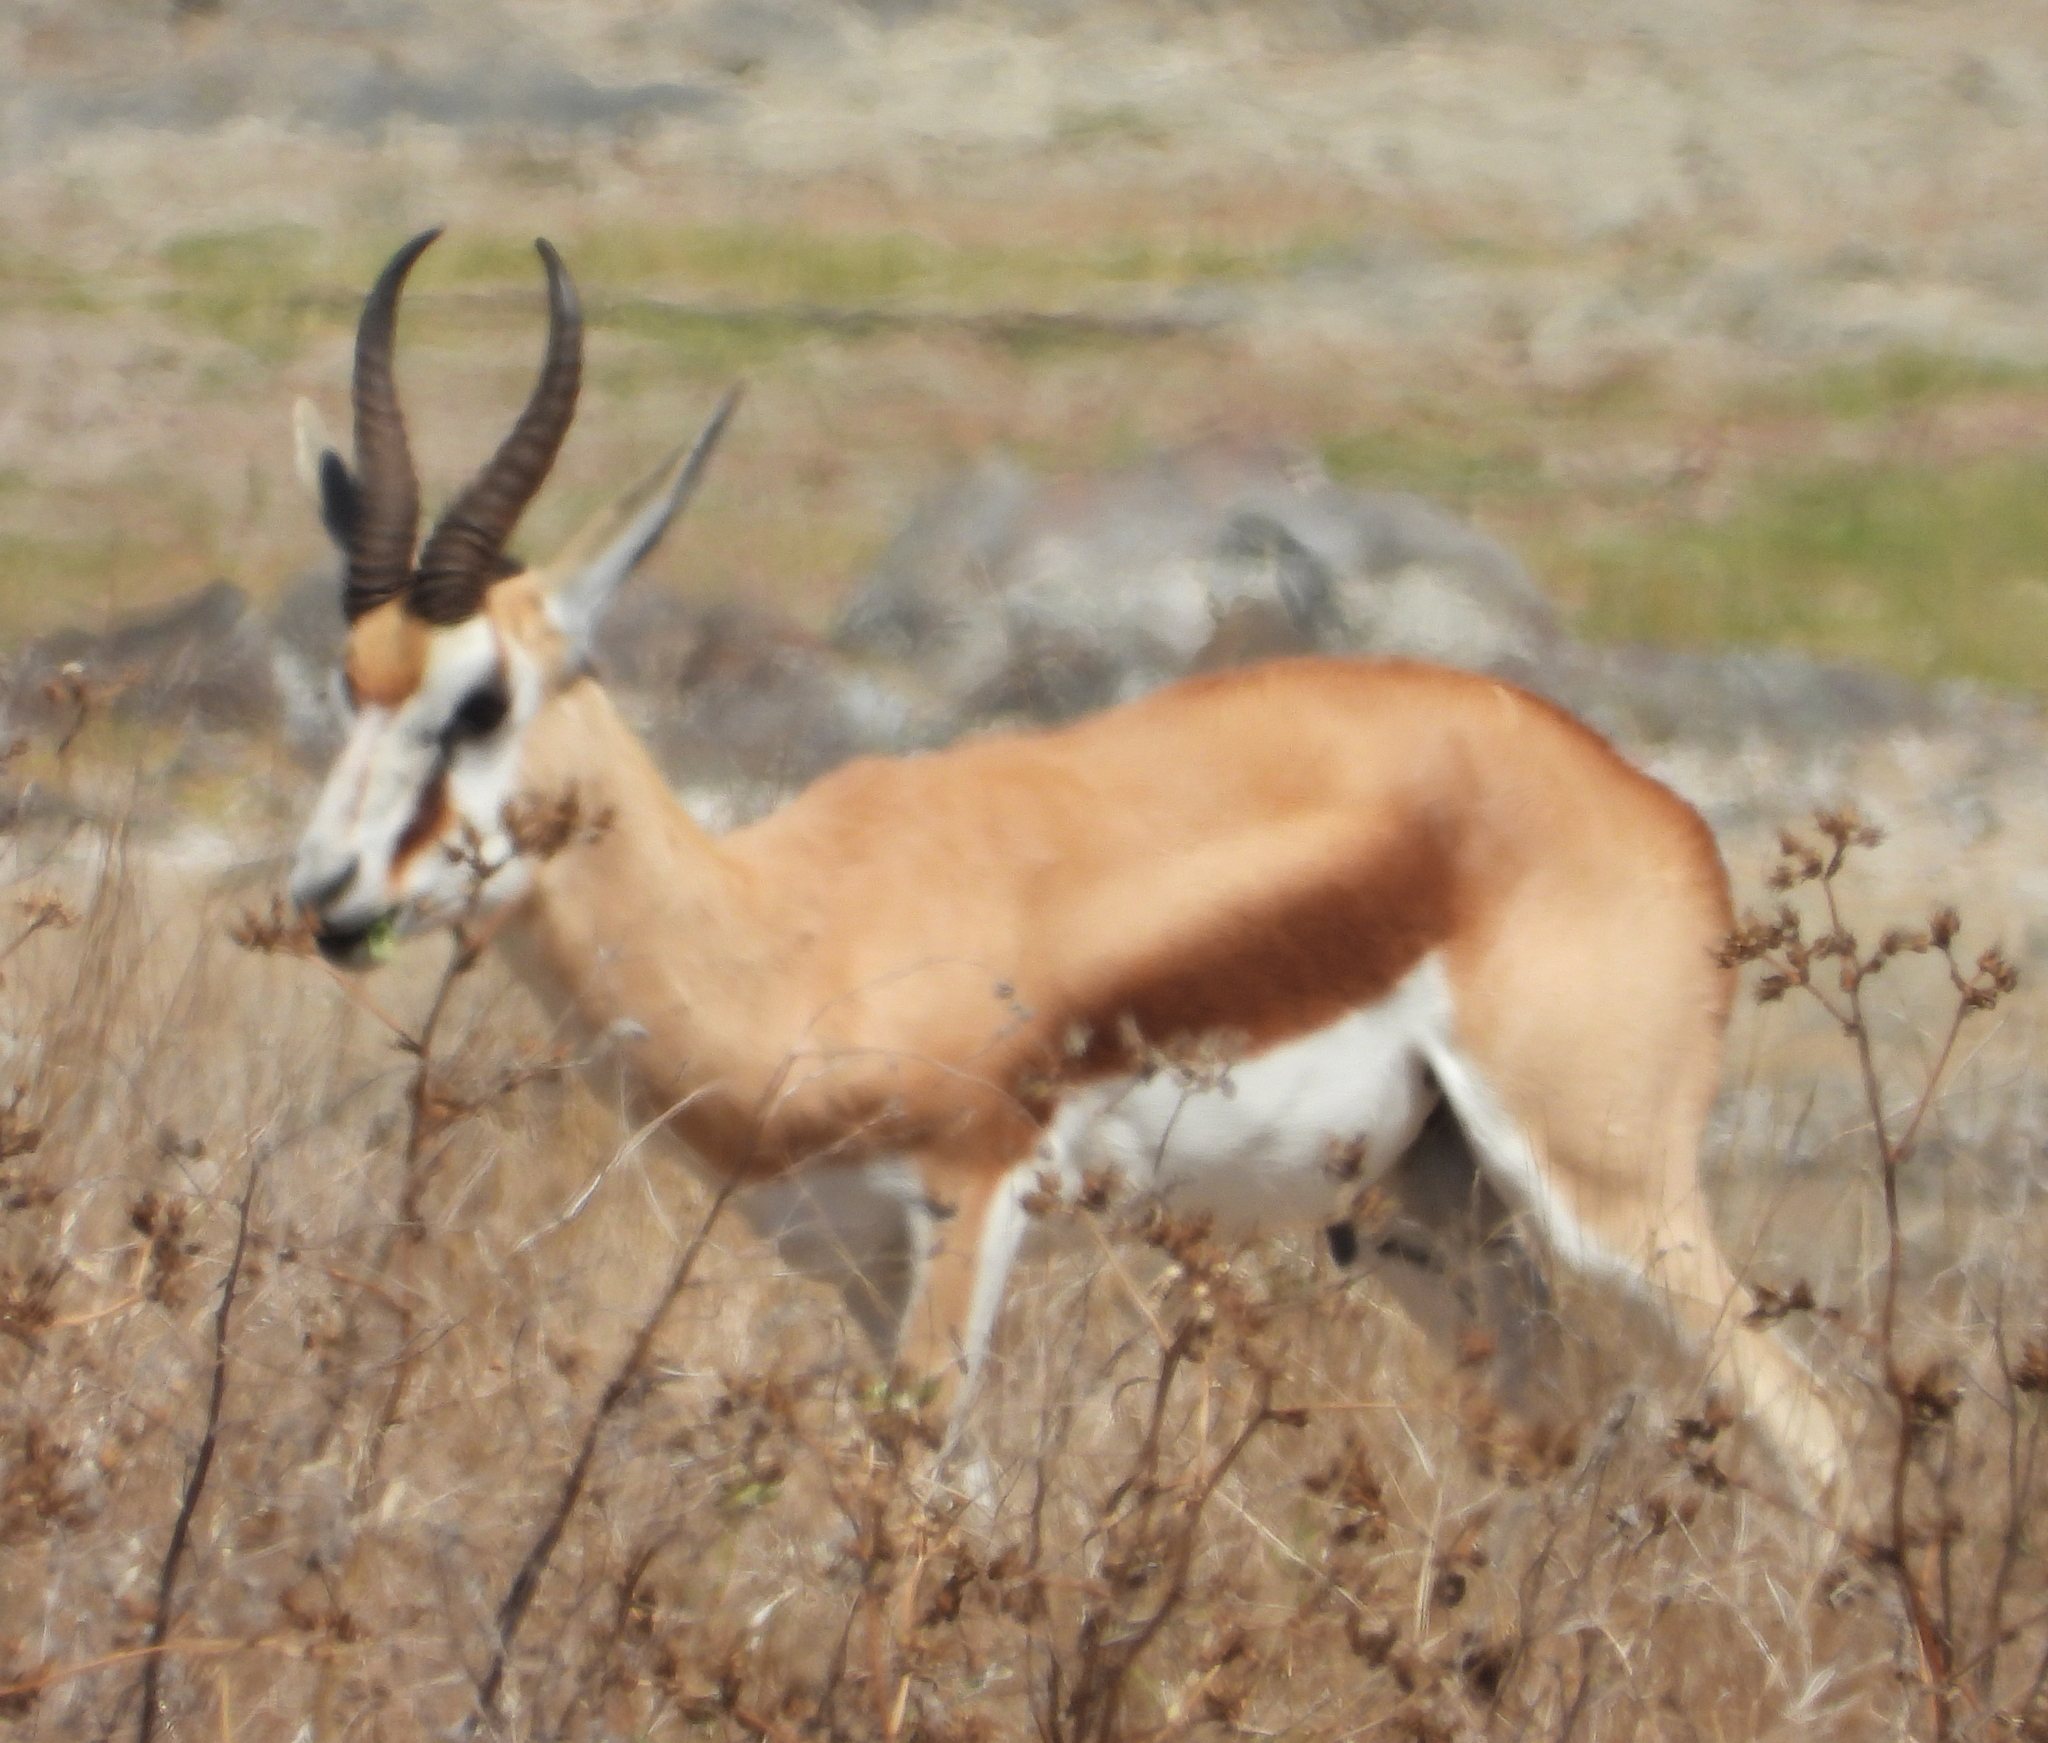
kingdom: Animalia
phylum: Chordata
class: Mammalia
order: Artiodactyla
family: Bovidae
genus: Antidorcas
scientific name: Antidorcas marsupialis
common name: Springbok
